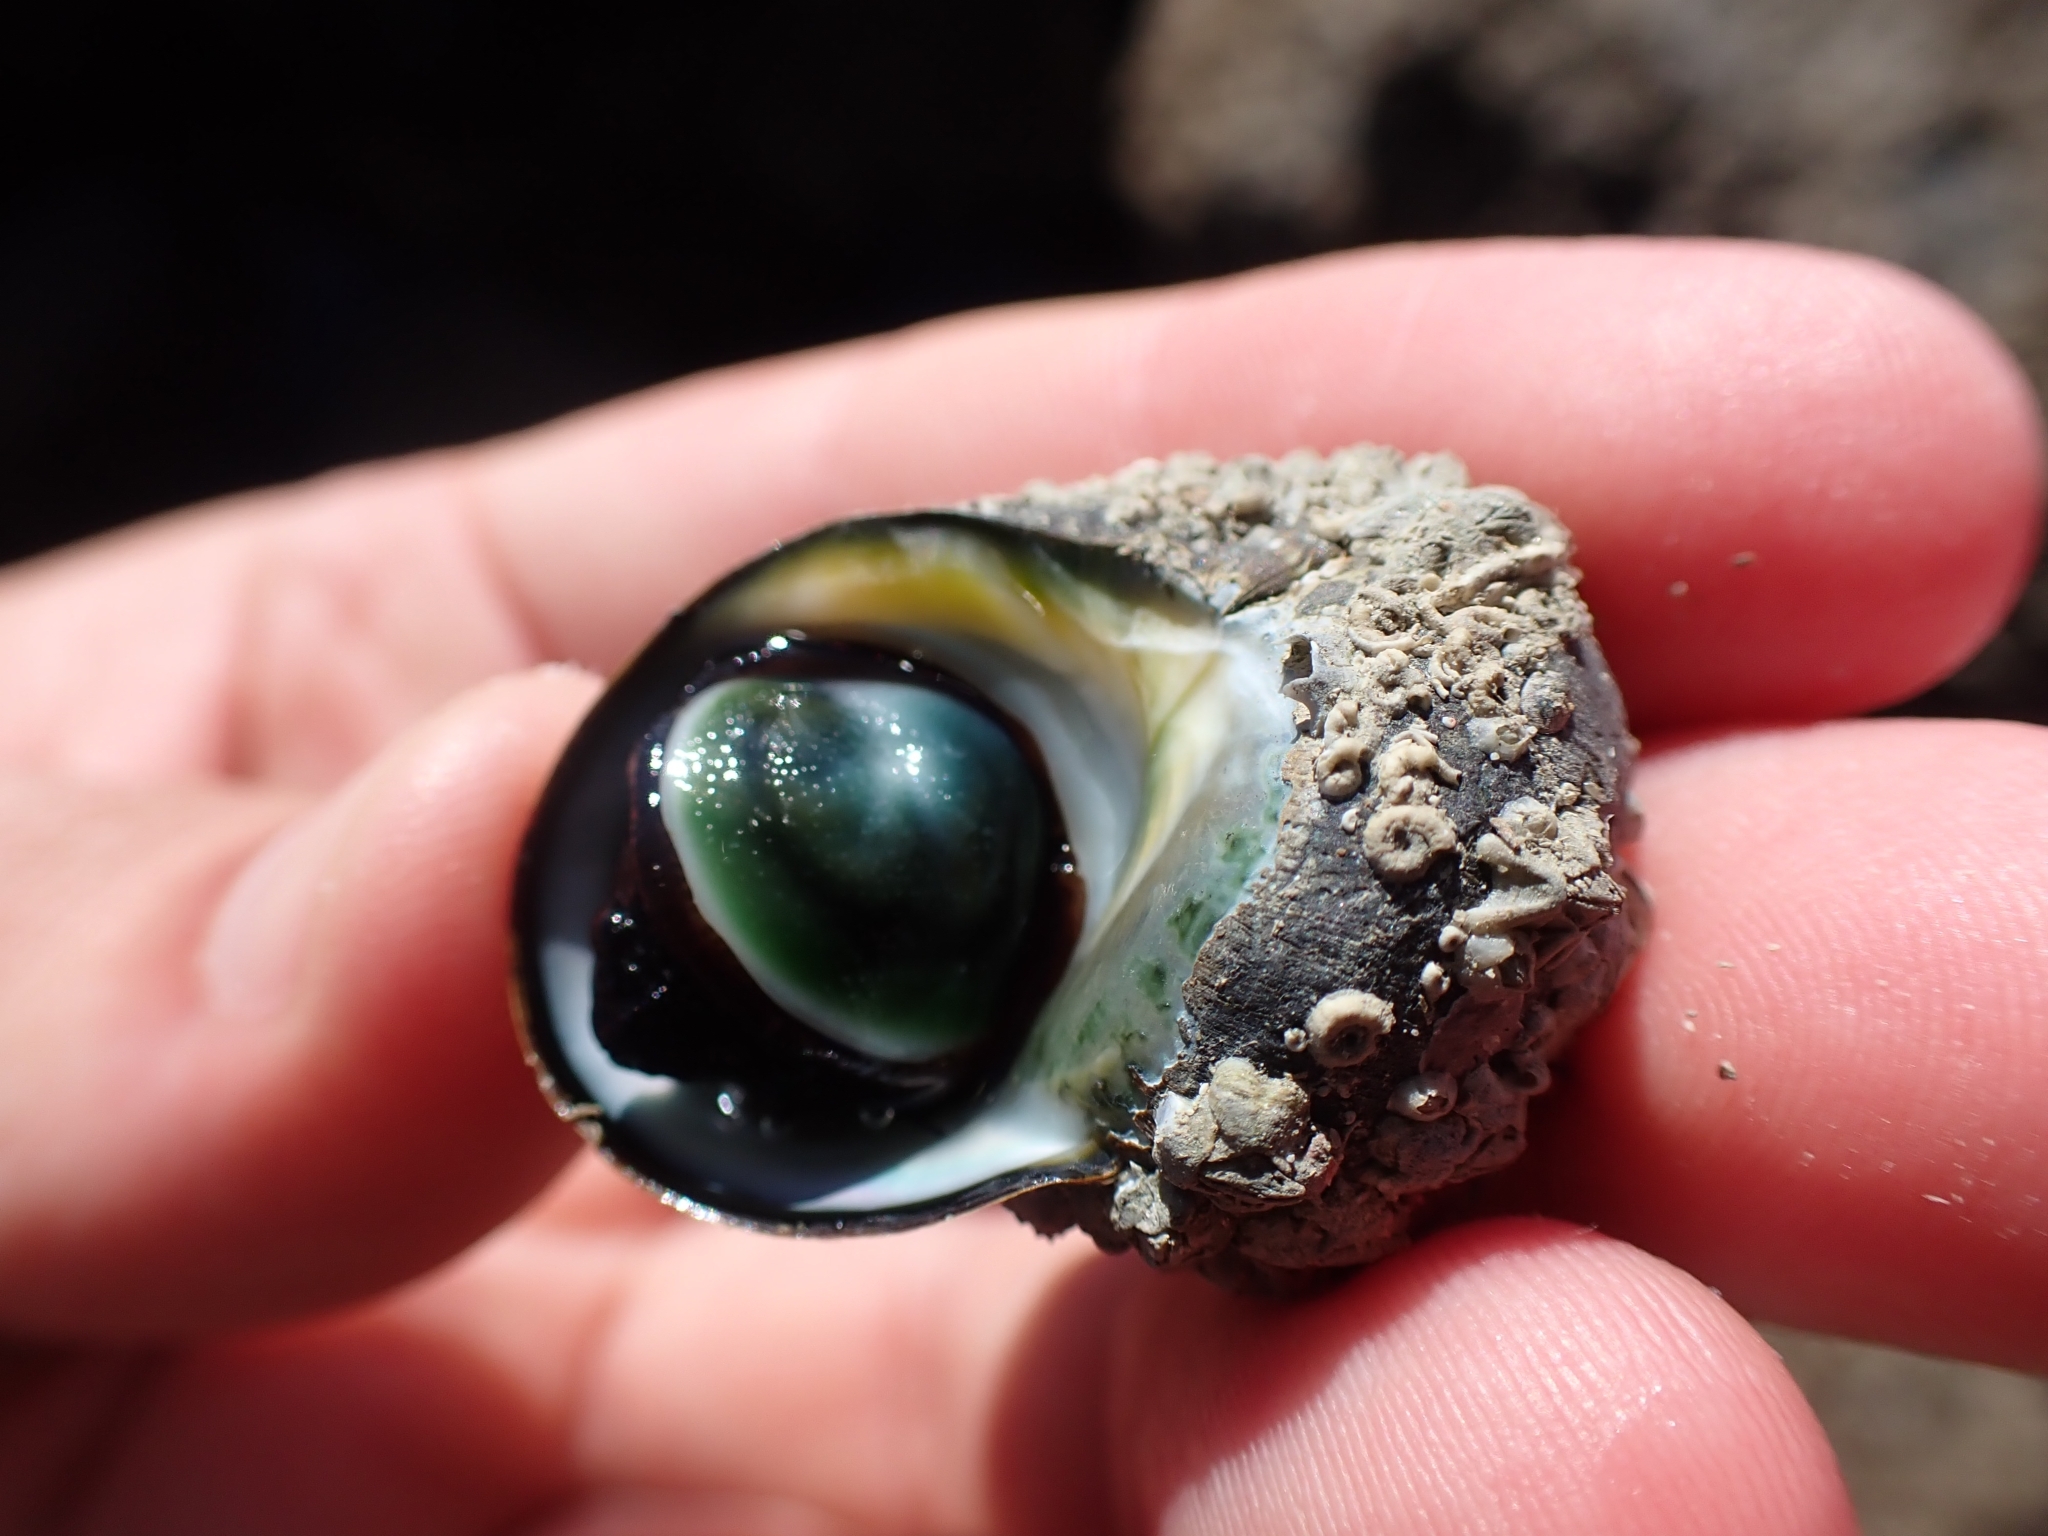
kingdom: Animalia
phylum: Mollusca
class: Gastropoda
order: Trochida
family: Turbinidae
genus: Lunella
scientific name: Lunella smaragda
